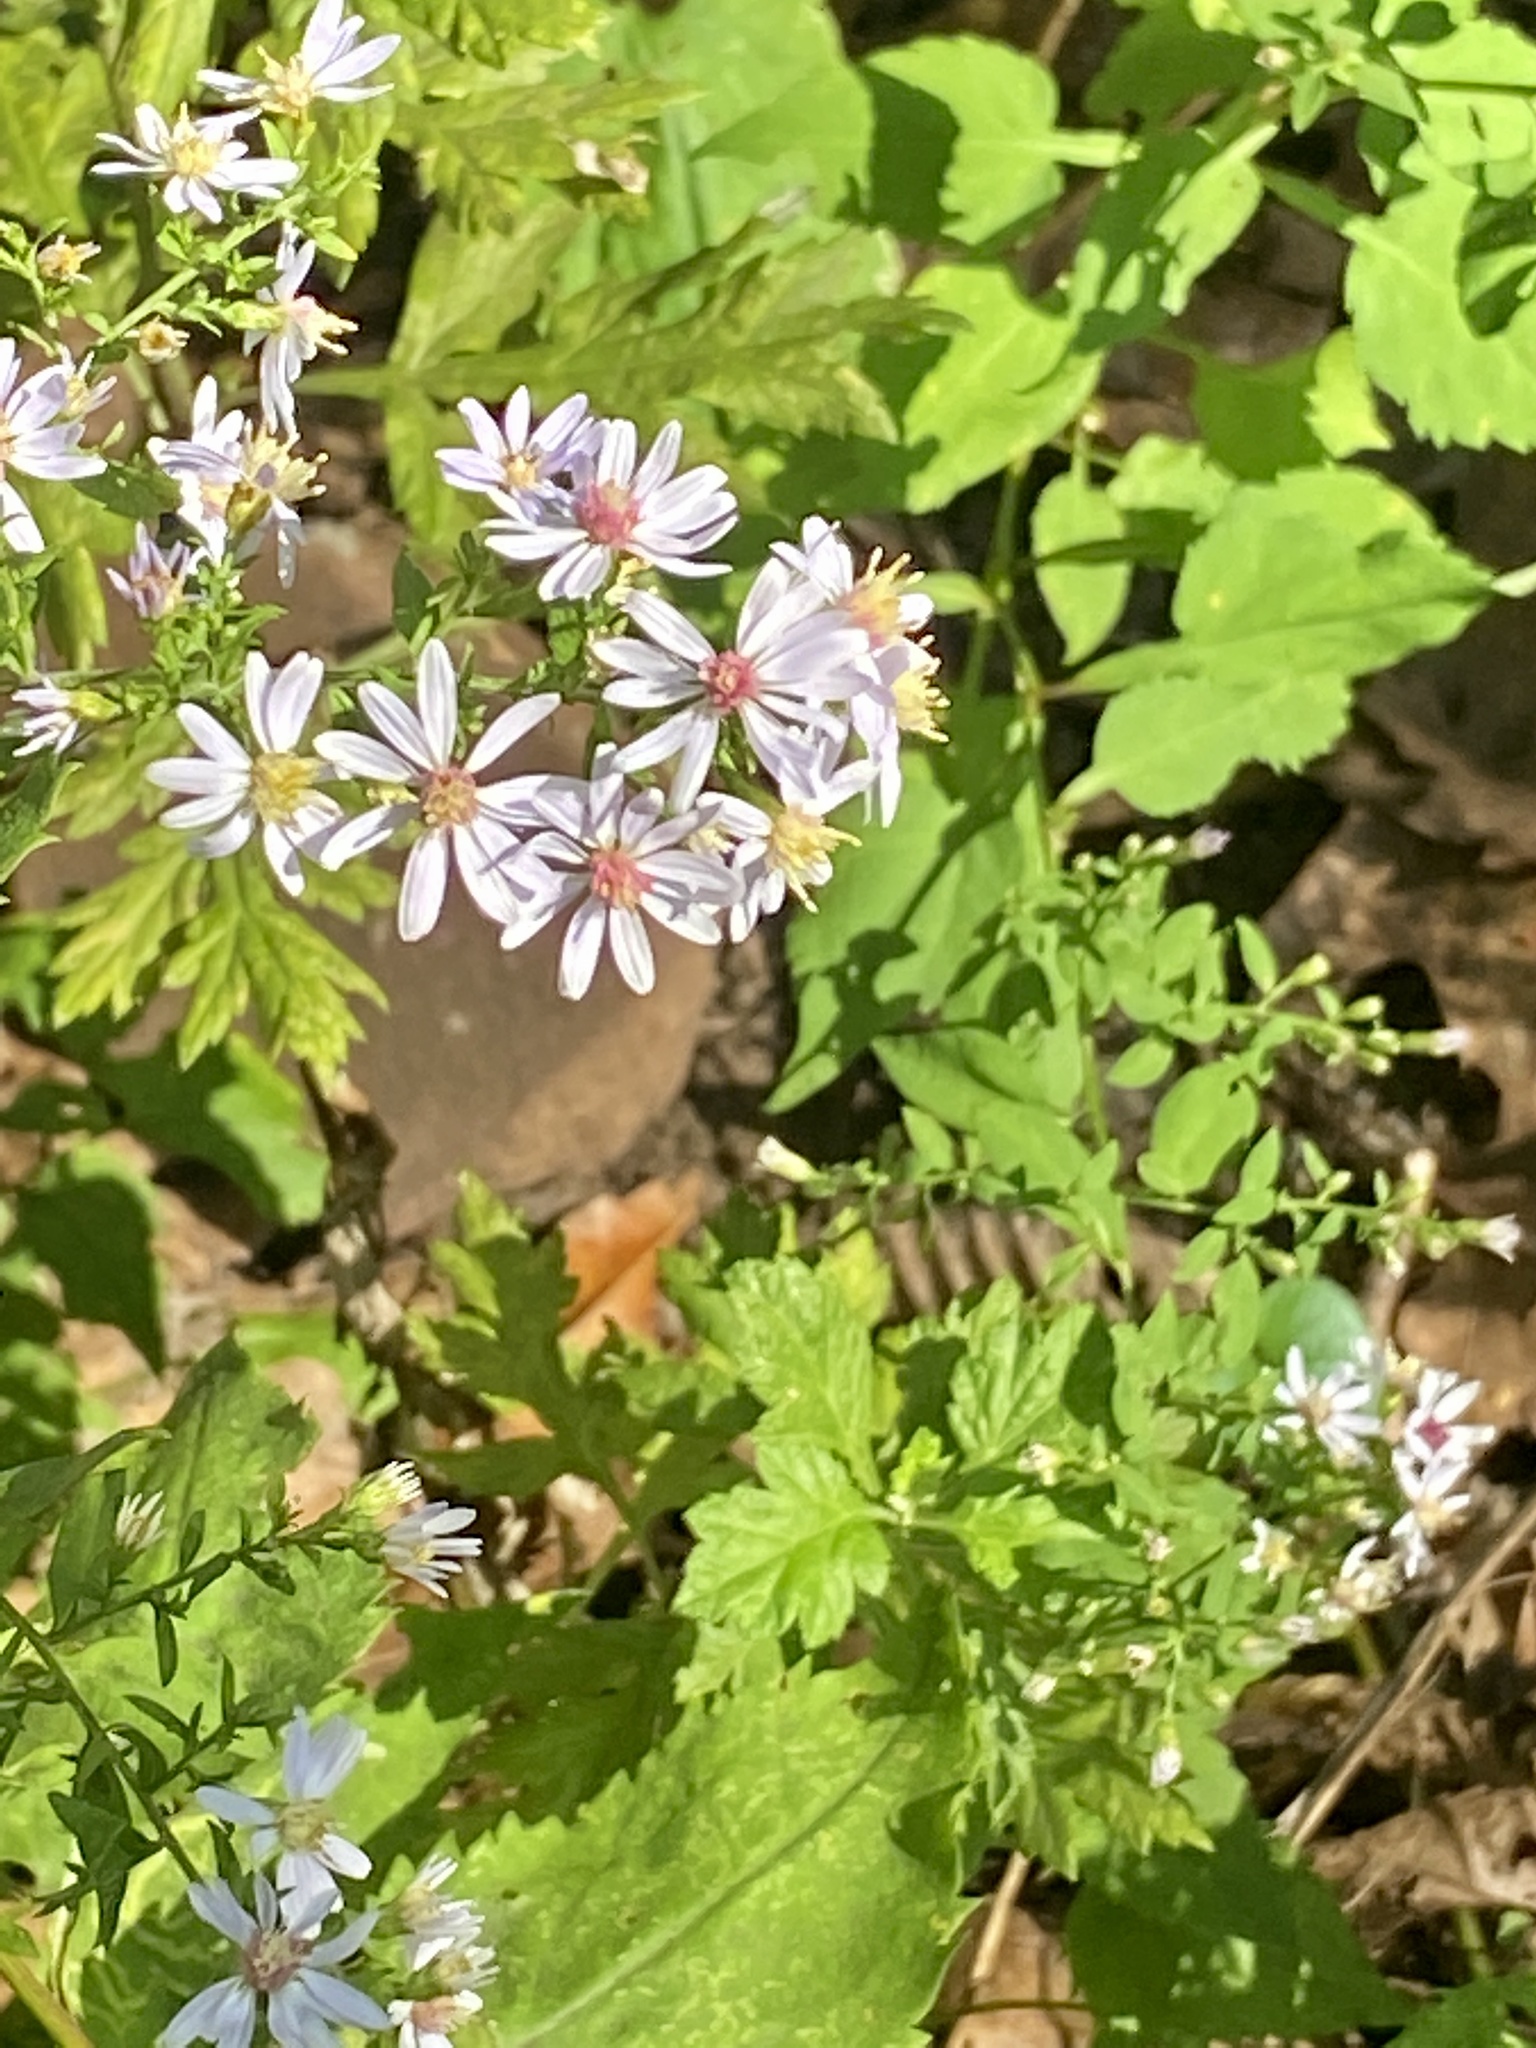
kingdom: Plantae
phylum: Tracheophyta
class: Magnoliopsida
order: Asterales
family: Asteraceae
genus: Symphyotrichum
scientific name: Symphyotrichum cordifolium
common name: Beeweed
